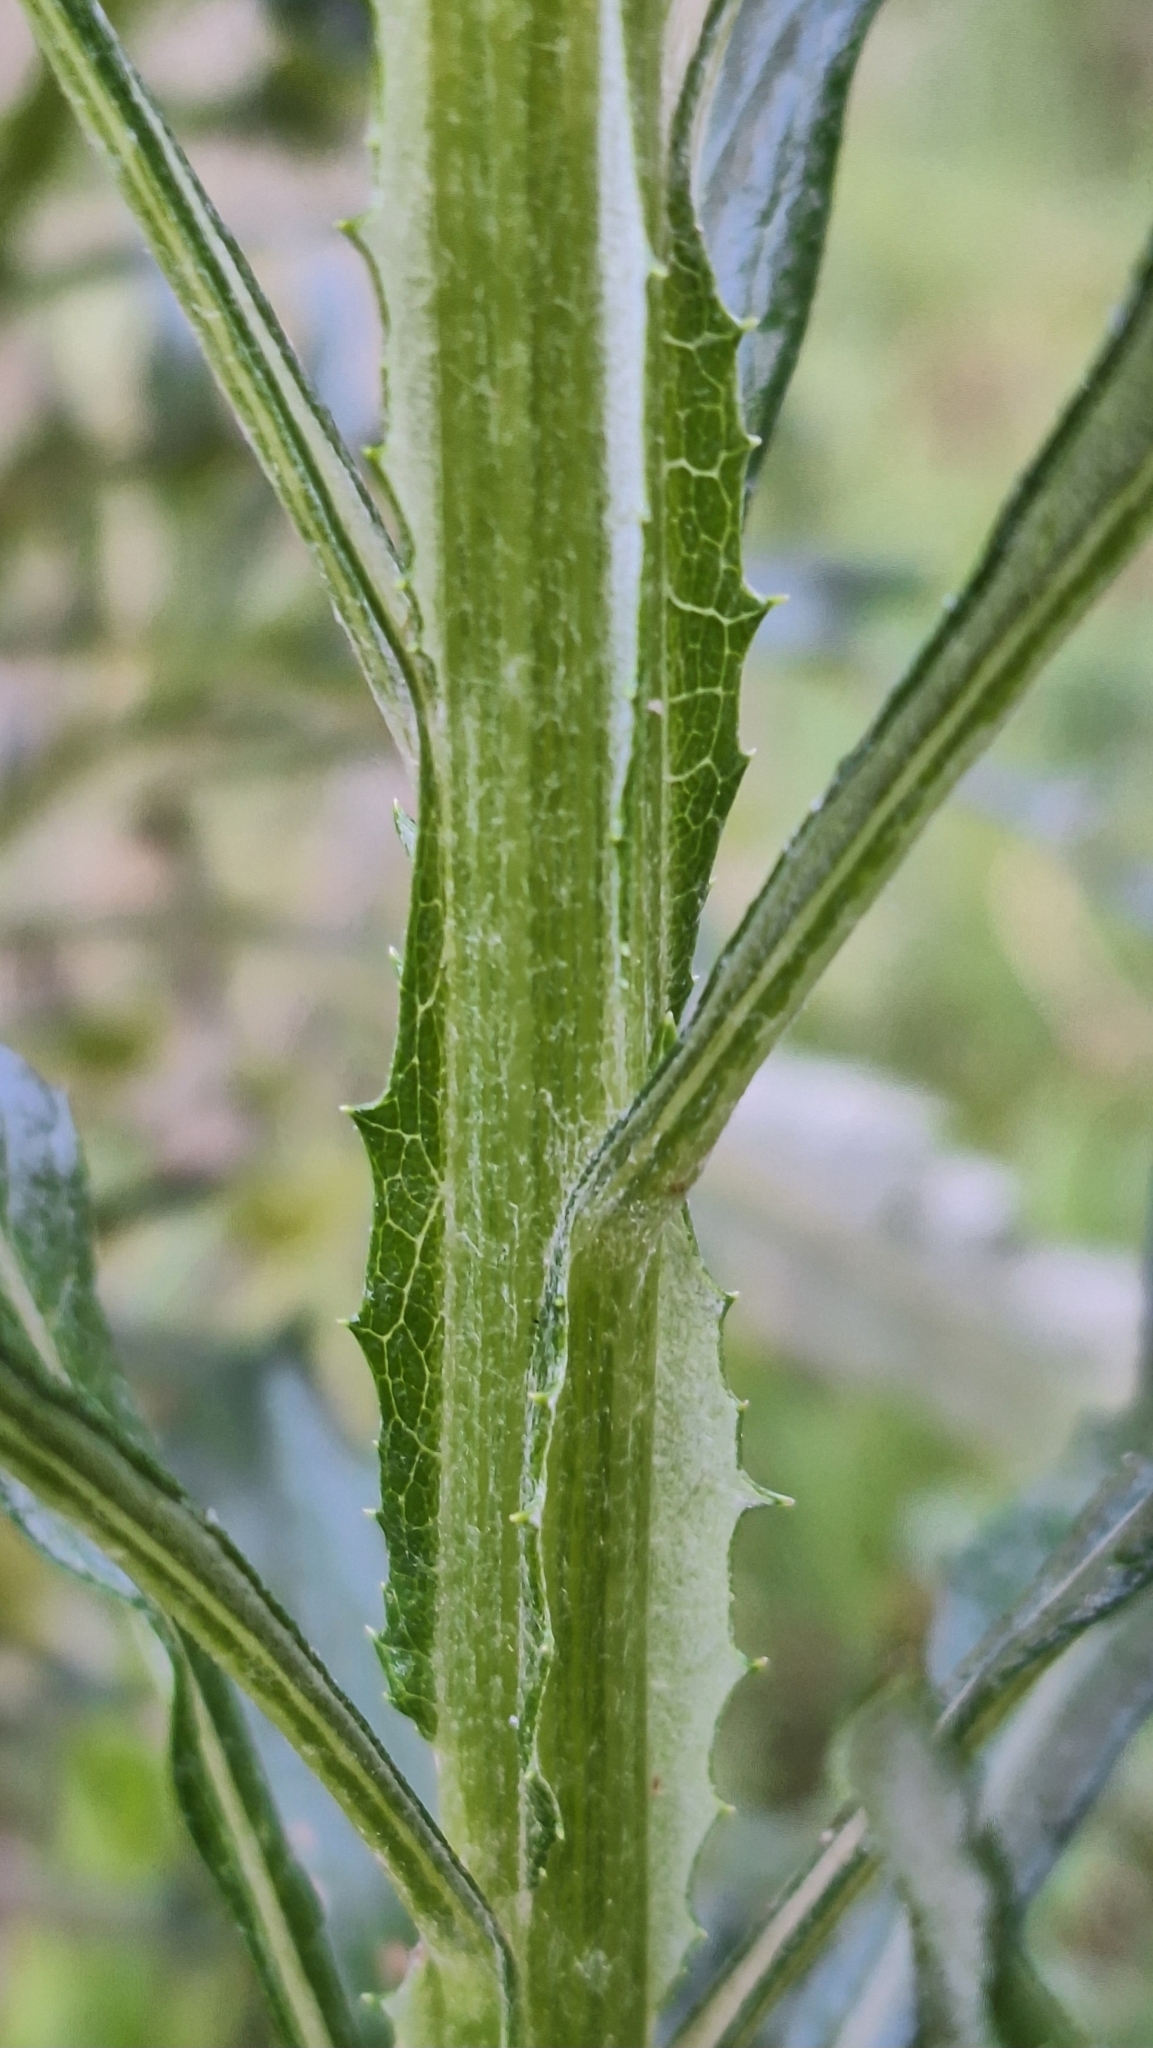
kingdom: Plantae
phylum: Tracheophyta
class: Magnoliopsida
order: Asterales
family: Asteraceae
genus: Senecio
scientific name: Senecio pterophorus
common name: Shoddy ragwort
